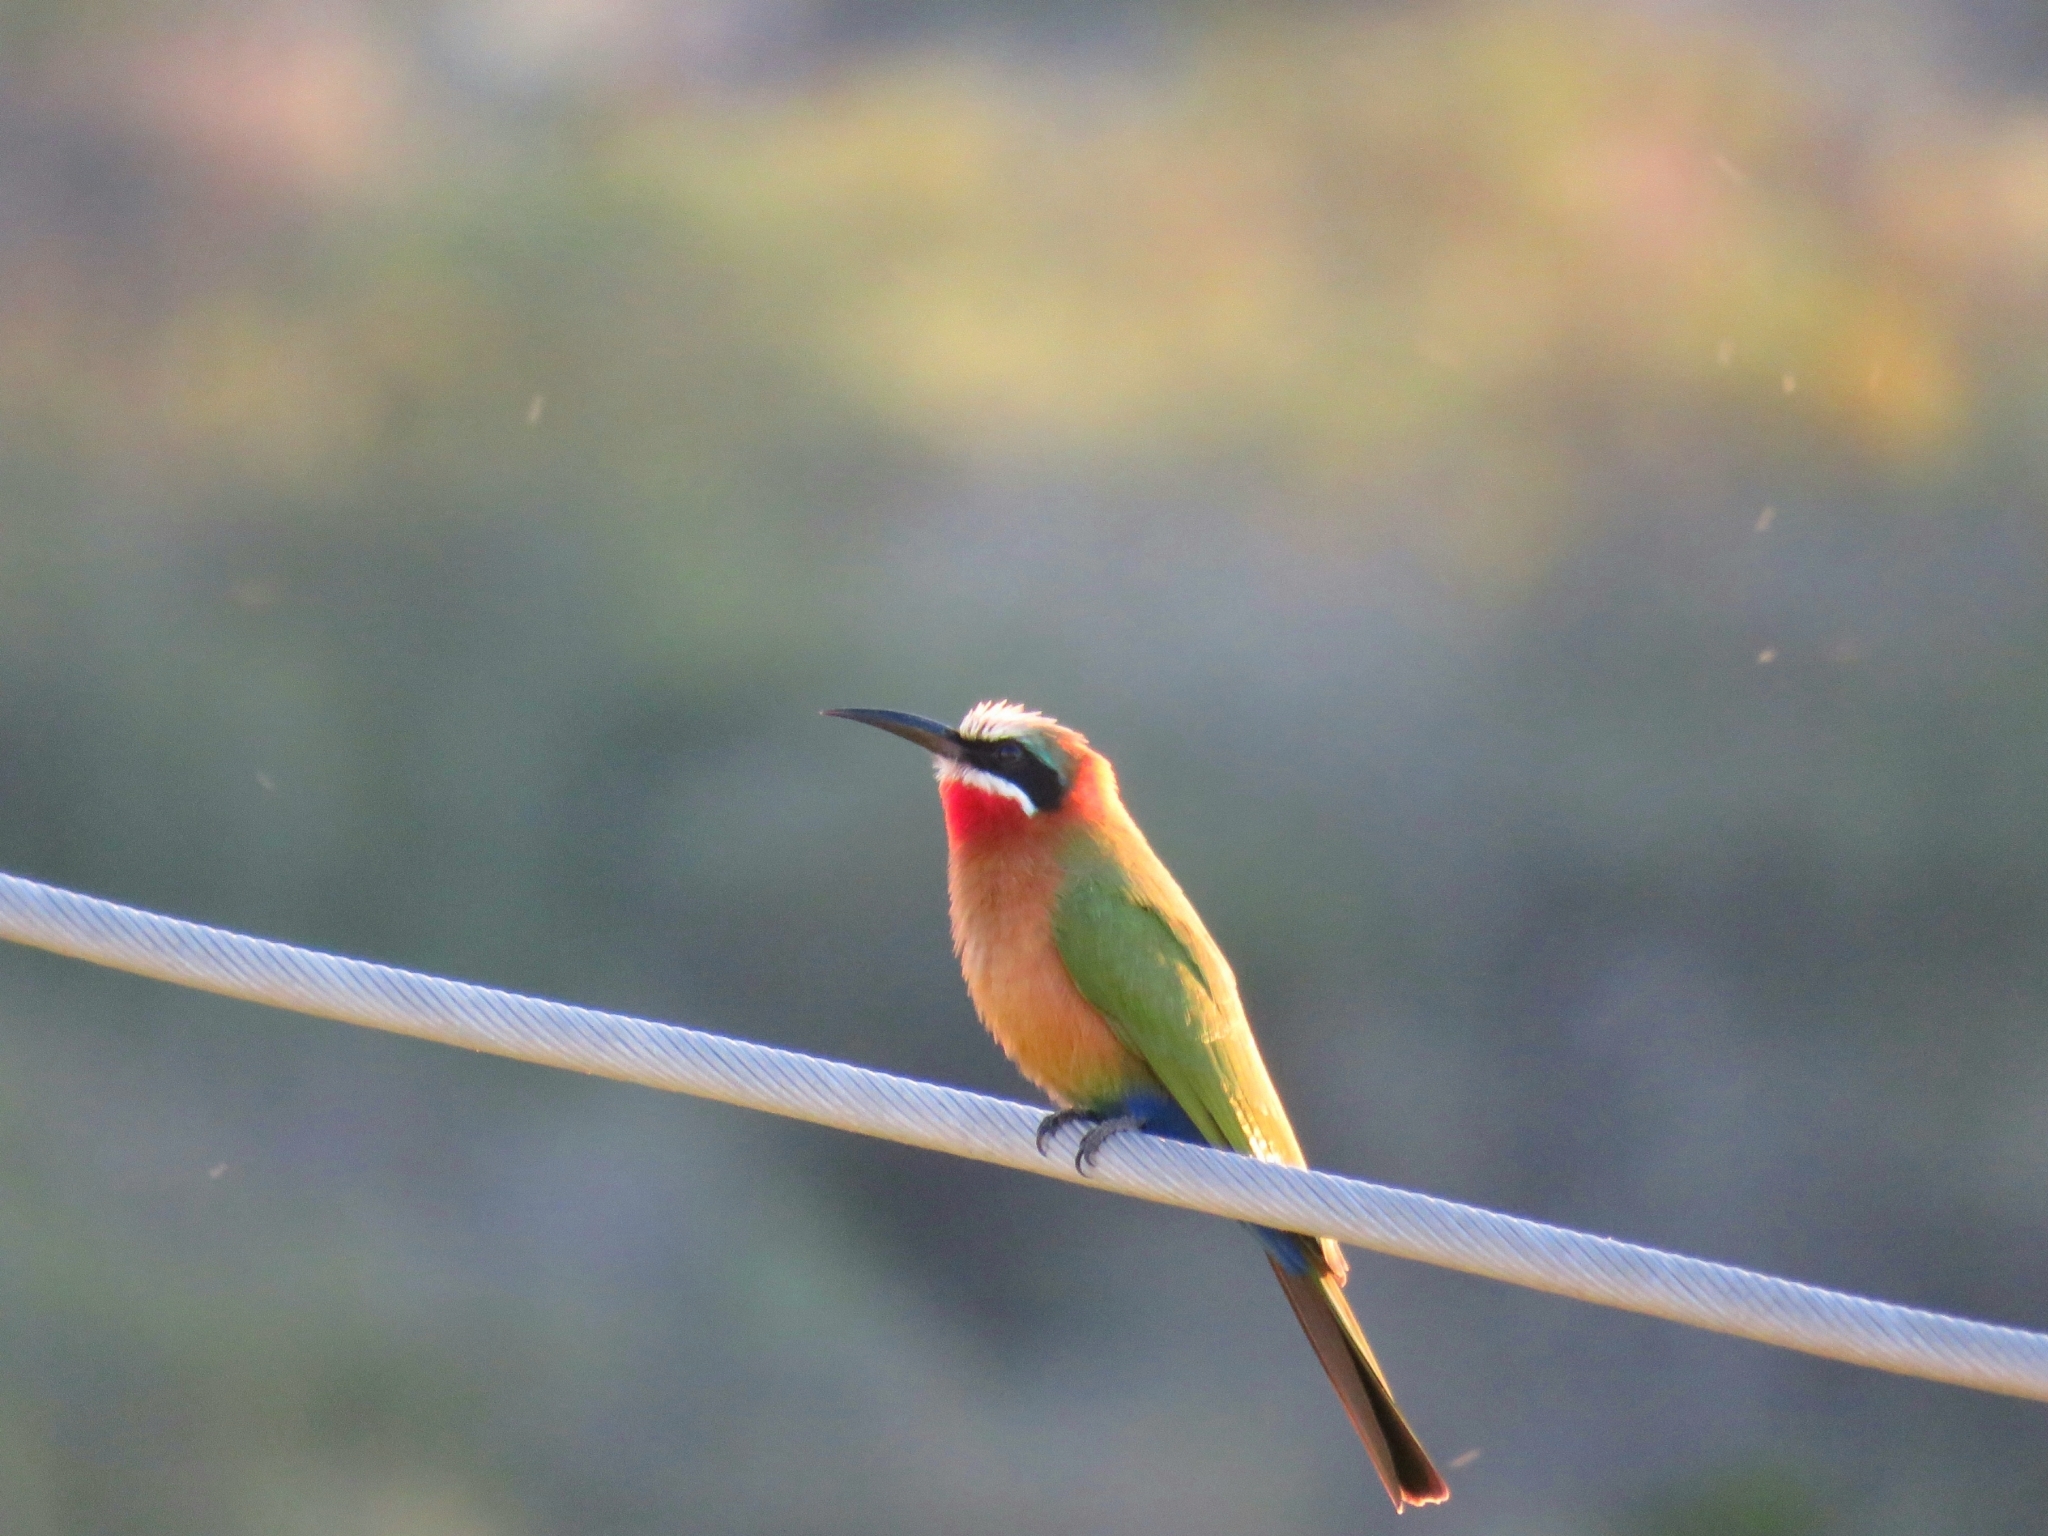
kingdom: Animalia
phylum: Chordata
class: Aves
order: Coraciiformes
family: Meropidae
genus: Merops
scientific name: Merops bullockoides
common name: White-fronted bee-eater
